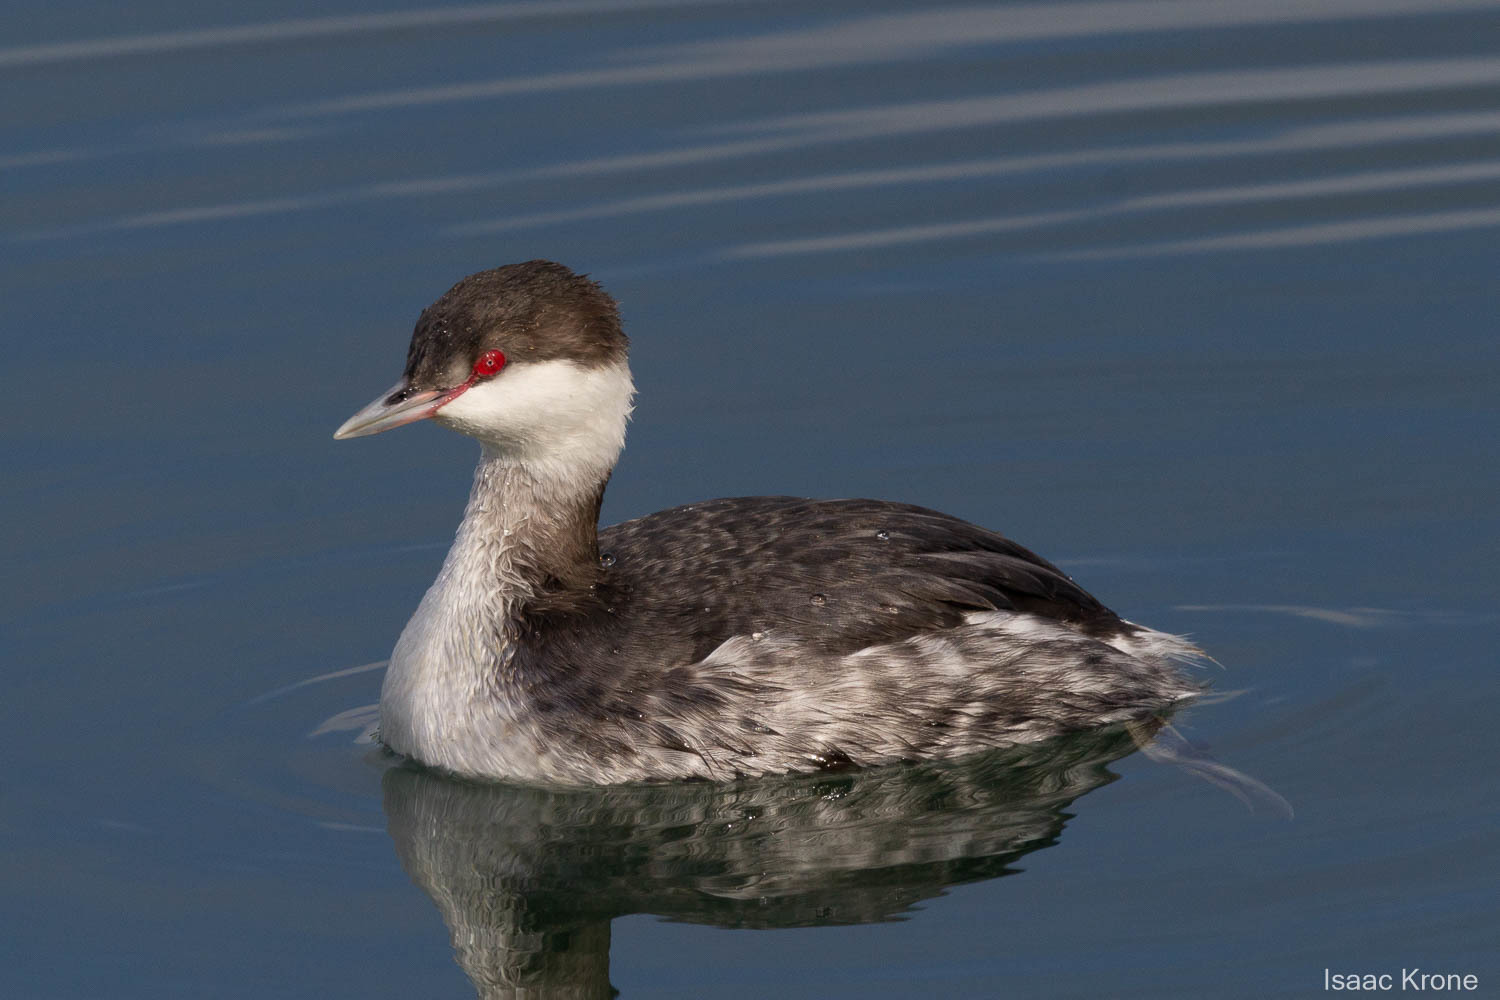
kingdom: Animalia
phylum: Chordata
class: Aves
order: Podicipediformes
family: Podicipedidae
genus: Podiceps
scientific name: Podiceps auritus
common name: Horned grebe
